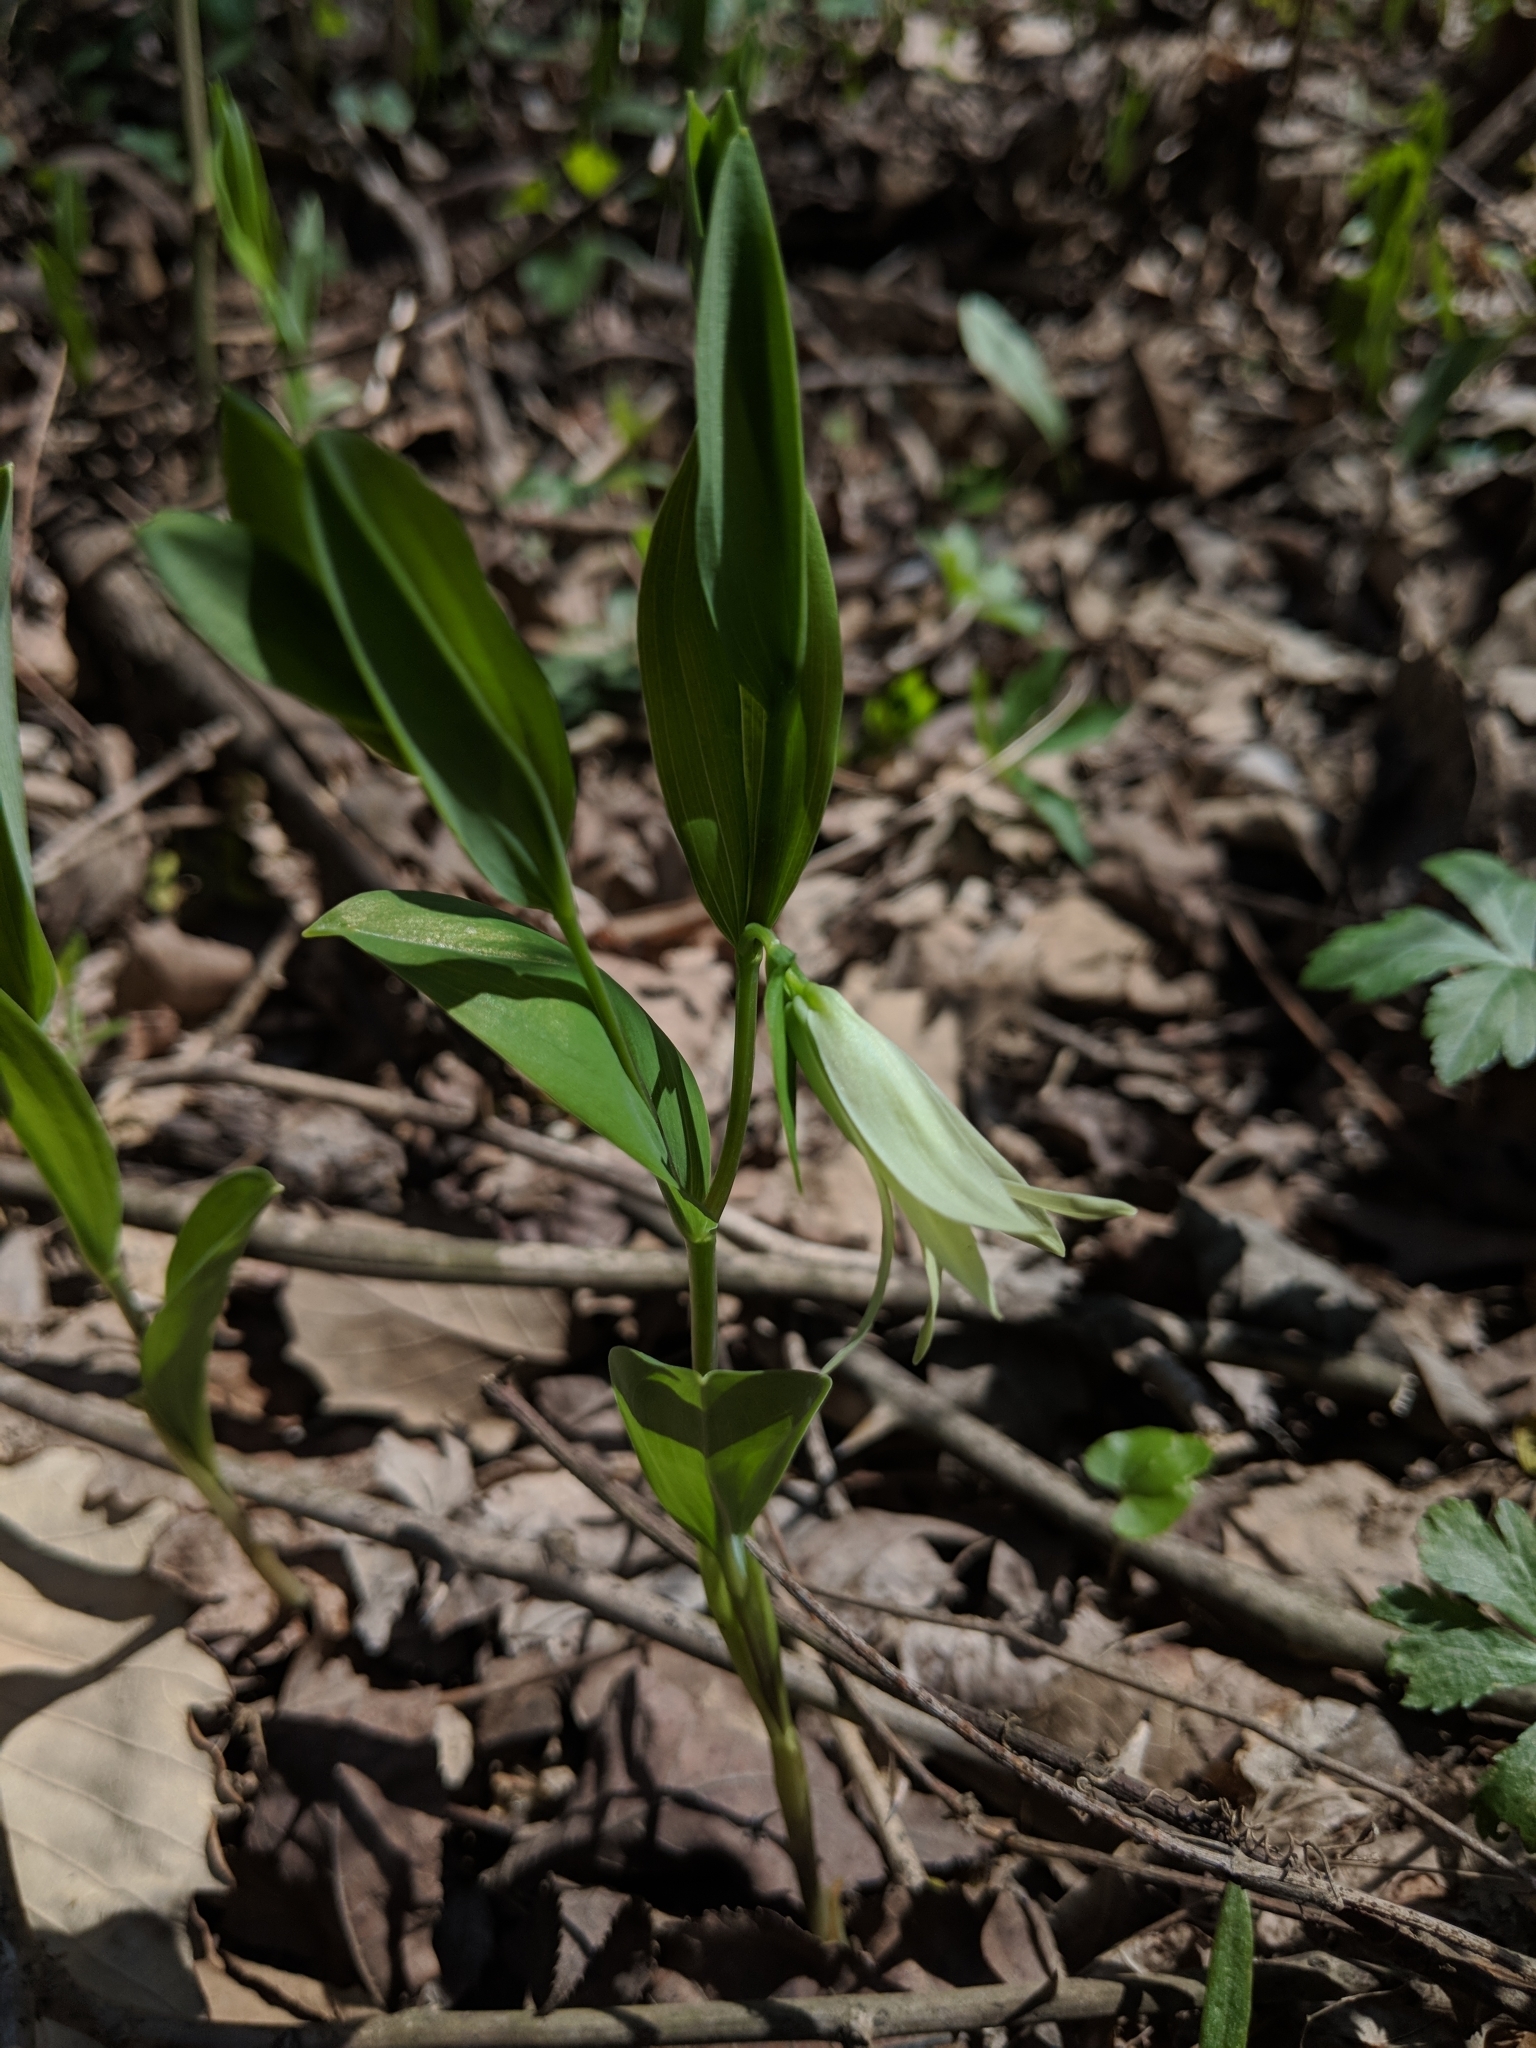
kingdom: Plantae
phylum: Tracheophyta
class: Liliopsida
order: Liliales
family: Colchicaceae
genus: Uvularia
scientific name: Uvularia floridana
